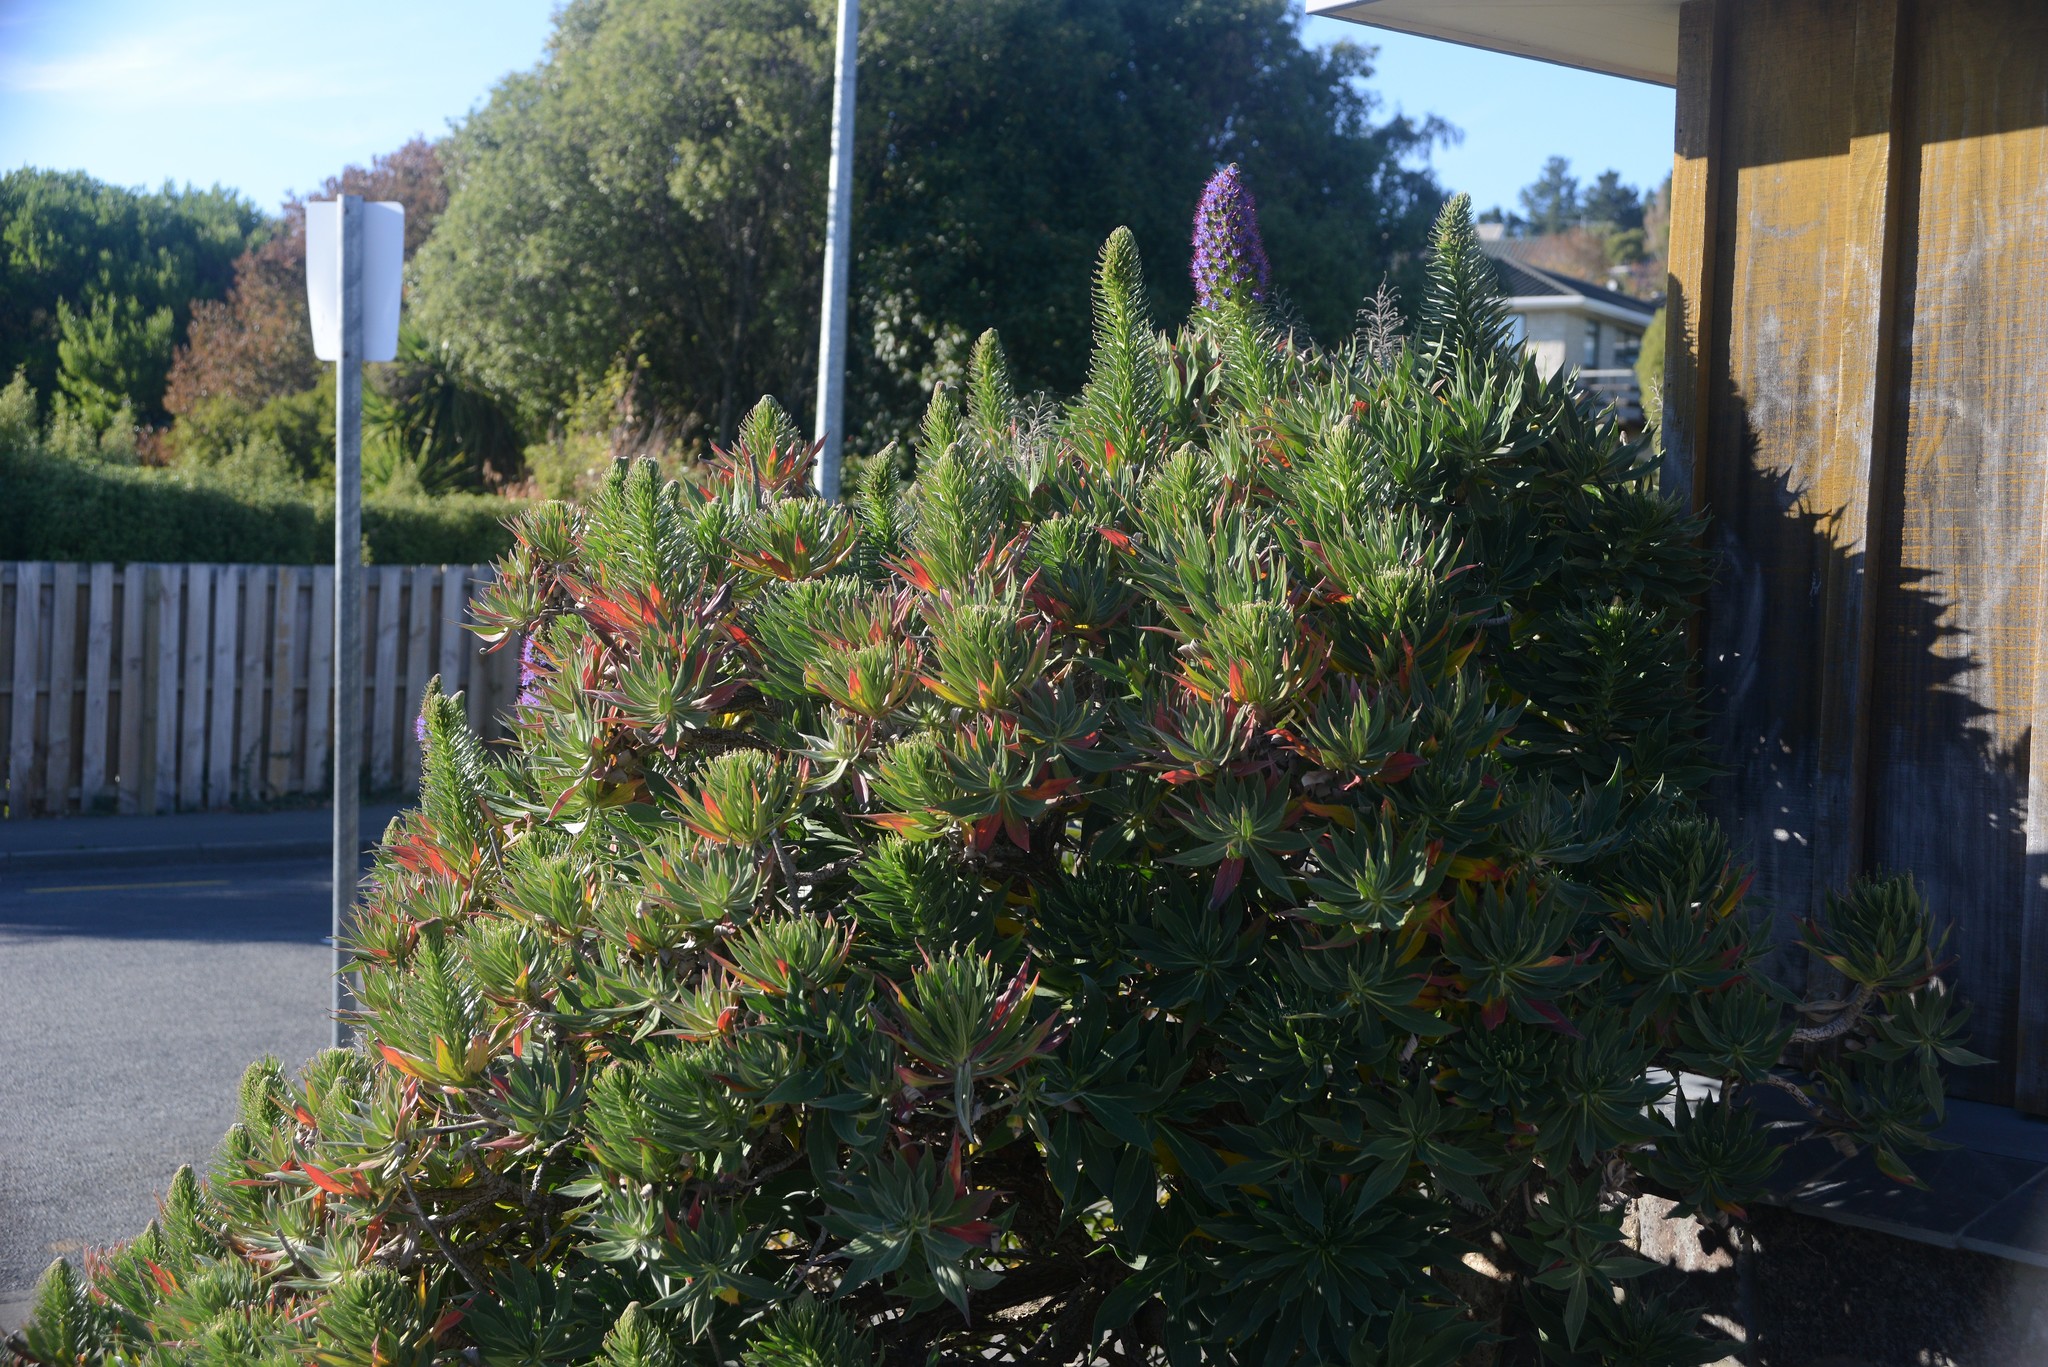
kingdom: Plantae
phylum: Tracheophyta
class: Magnoliopsida
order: Boraginales
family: Boraginaceae
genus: Echium
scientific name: Echium candicans
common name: Pride of madeira
